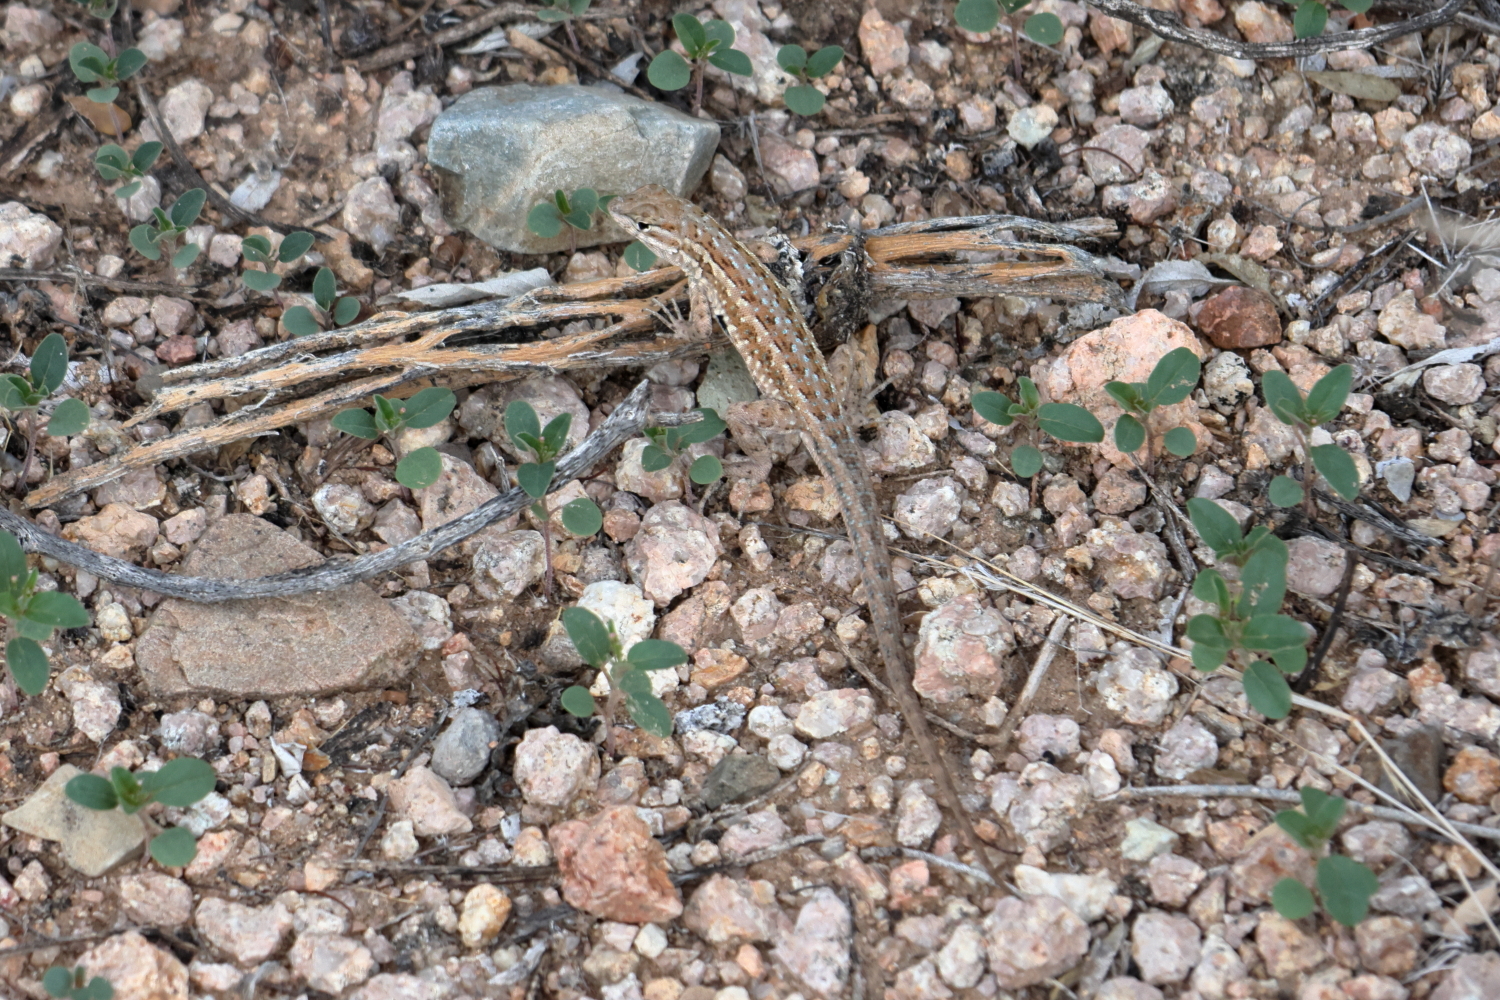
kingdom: Animalia
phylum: Chordata
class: Squamata
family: Phrynosomatidae
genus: Uta
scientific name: Uta stansburiana
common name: Side-blotched lizard
